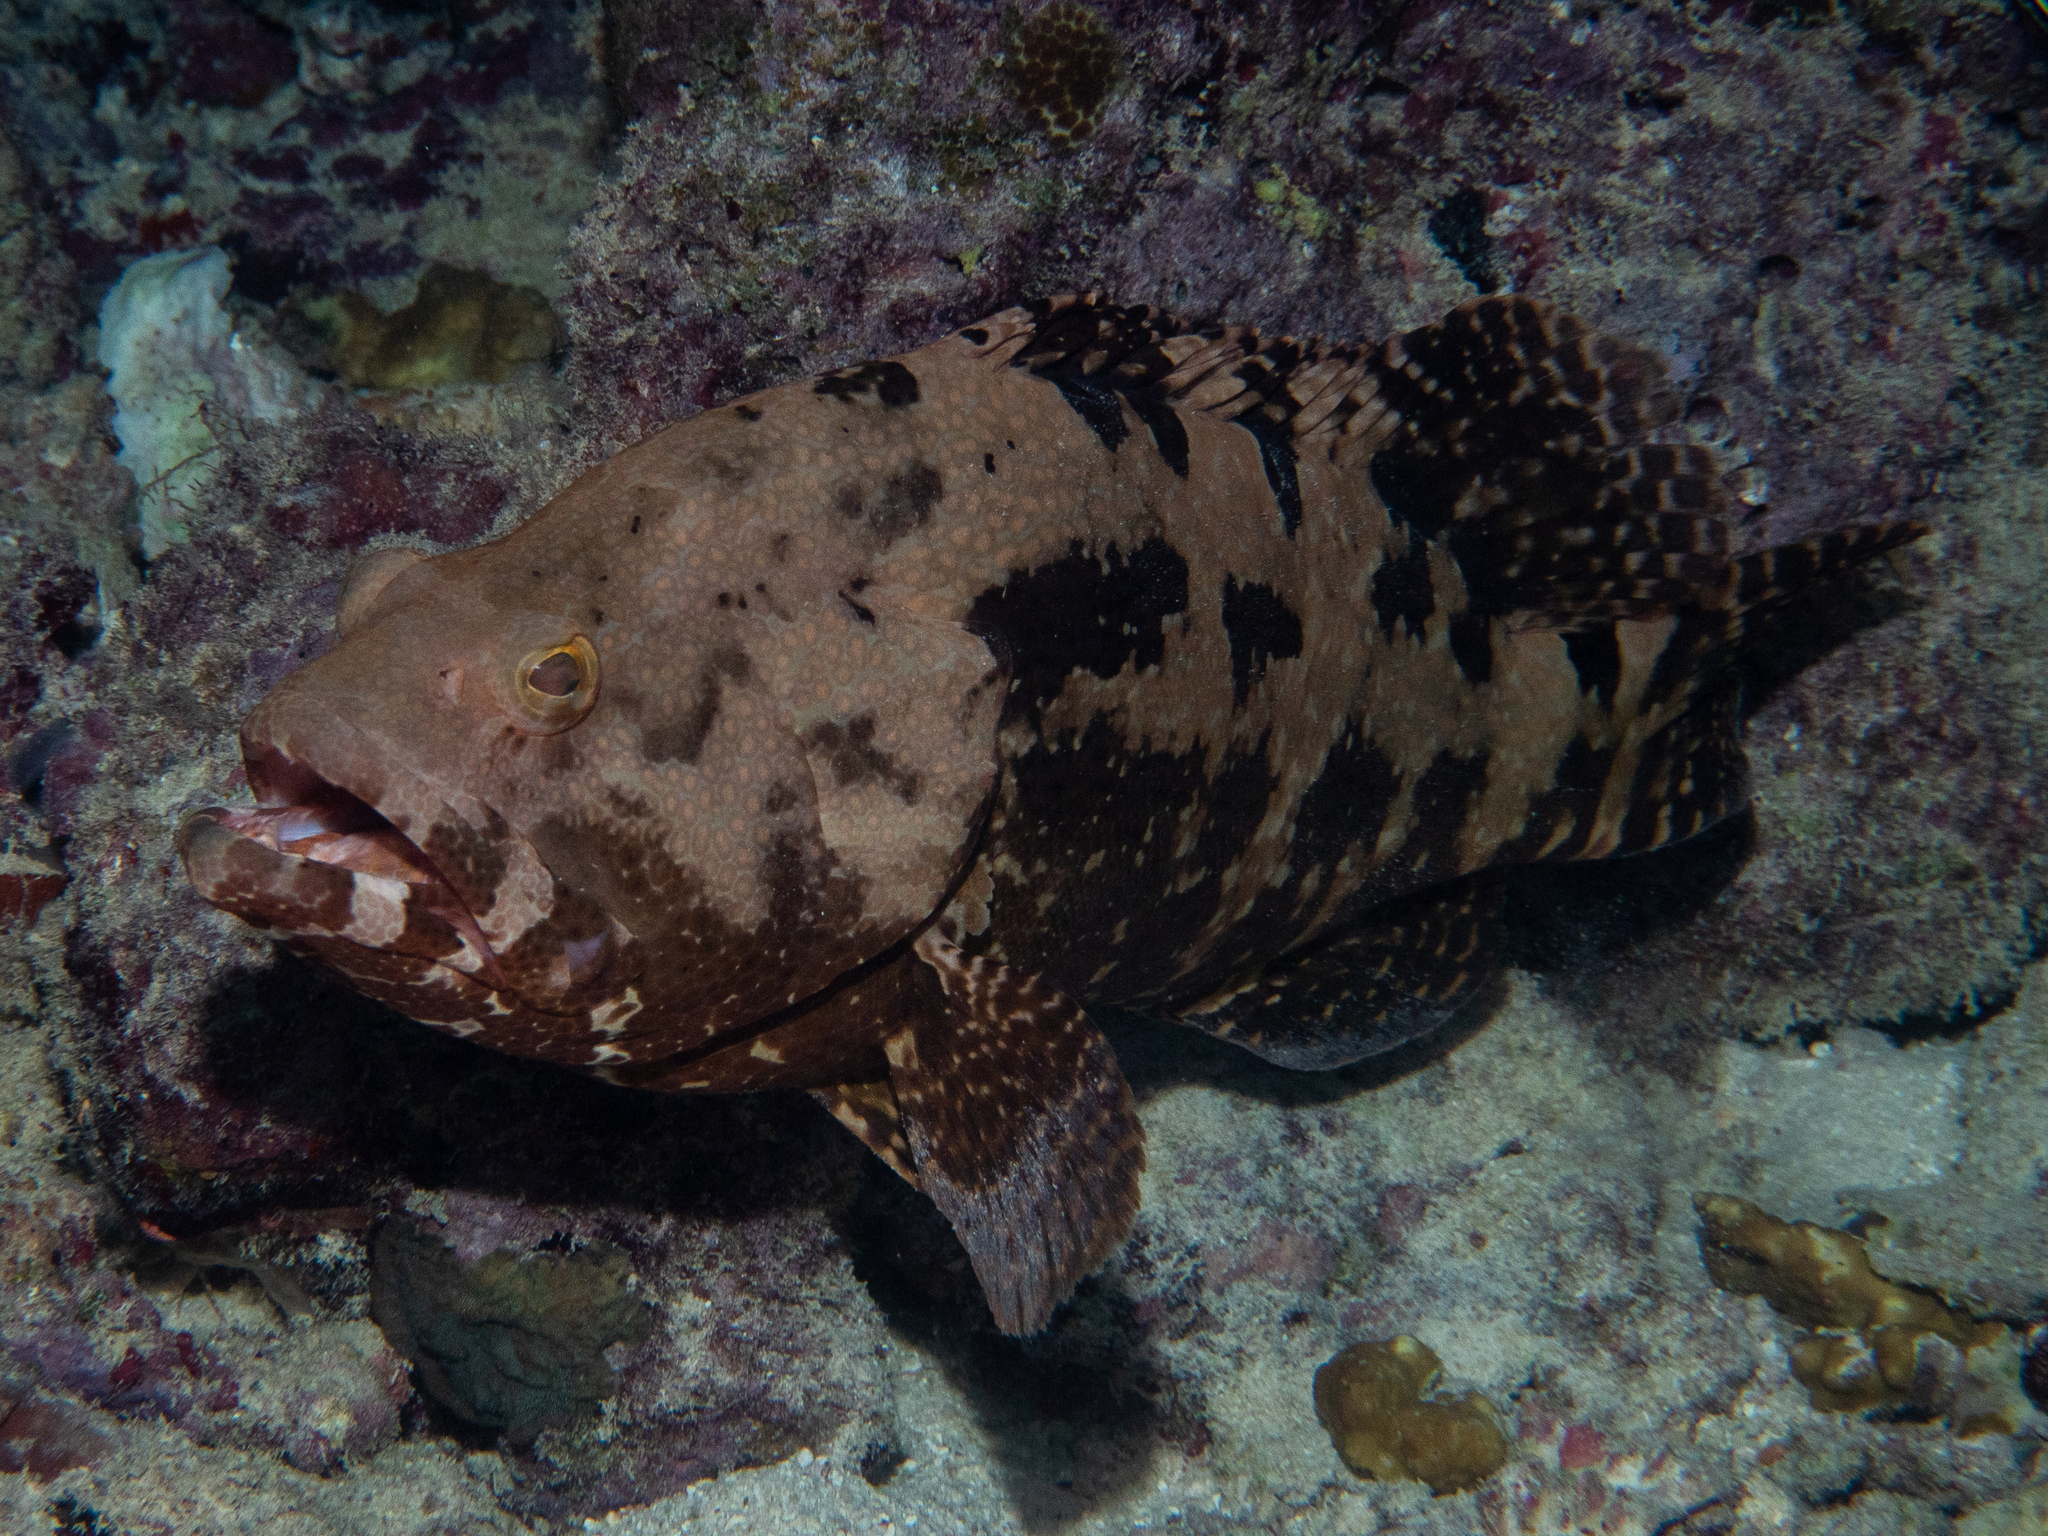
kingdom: Animalia
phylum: Chordata
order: Perciformes
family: Serranidae
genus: Epinephelus
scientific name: Epinephelus fuscoguttatus
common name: Brown-marbled grouper
